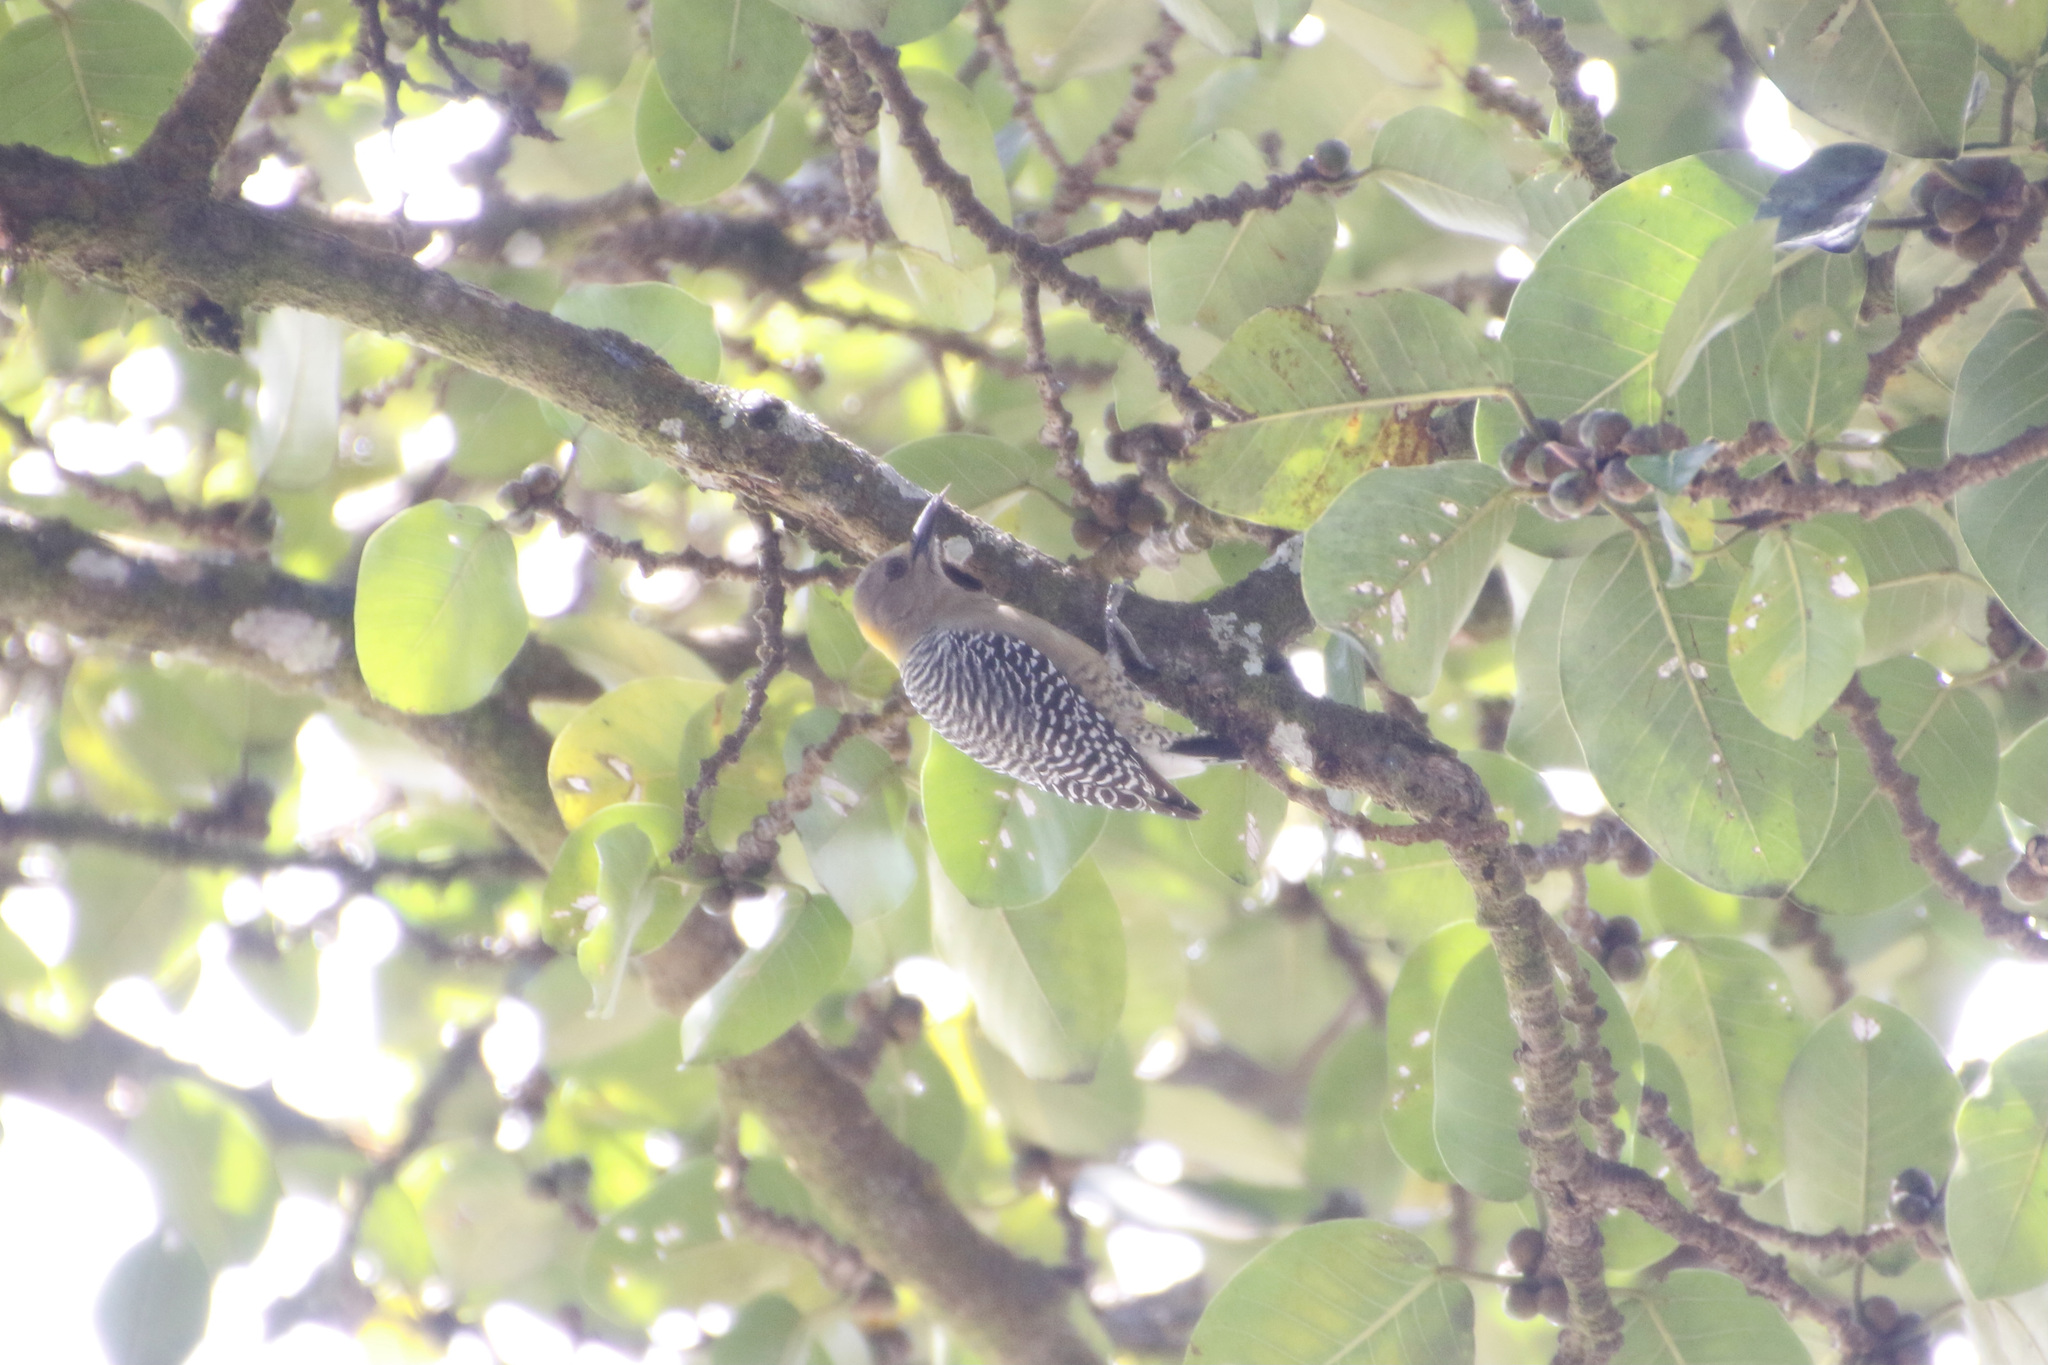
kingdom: Animalia
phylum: Chordata
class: Aves
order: Piciformes
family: Picidae
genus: Melanerpes
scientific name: Melanerpes hoffmannii
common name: Hoffmann's woodpecker
